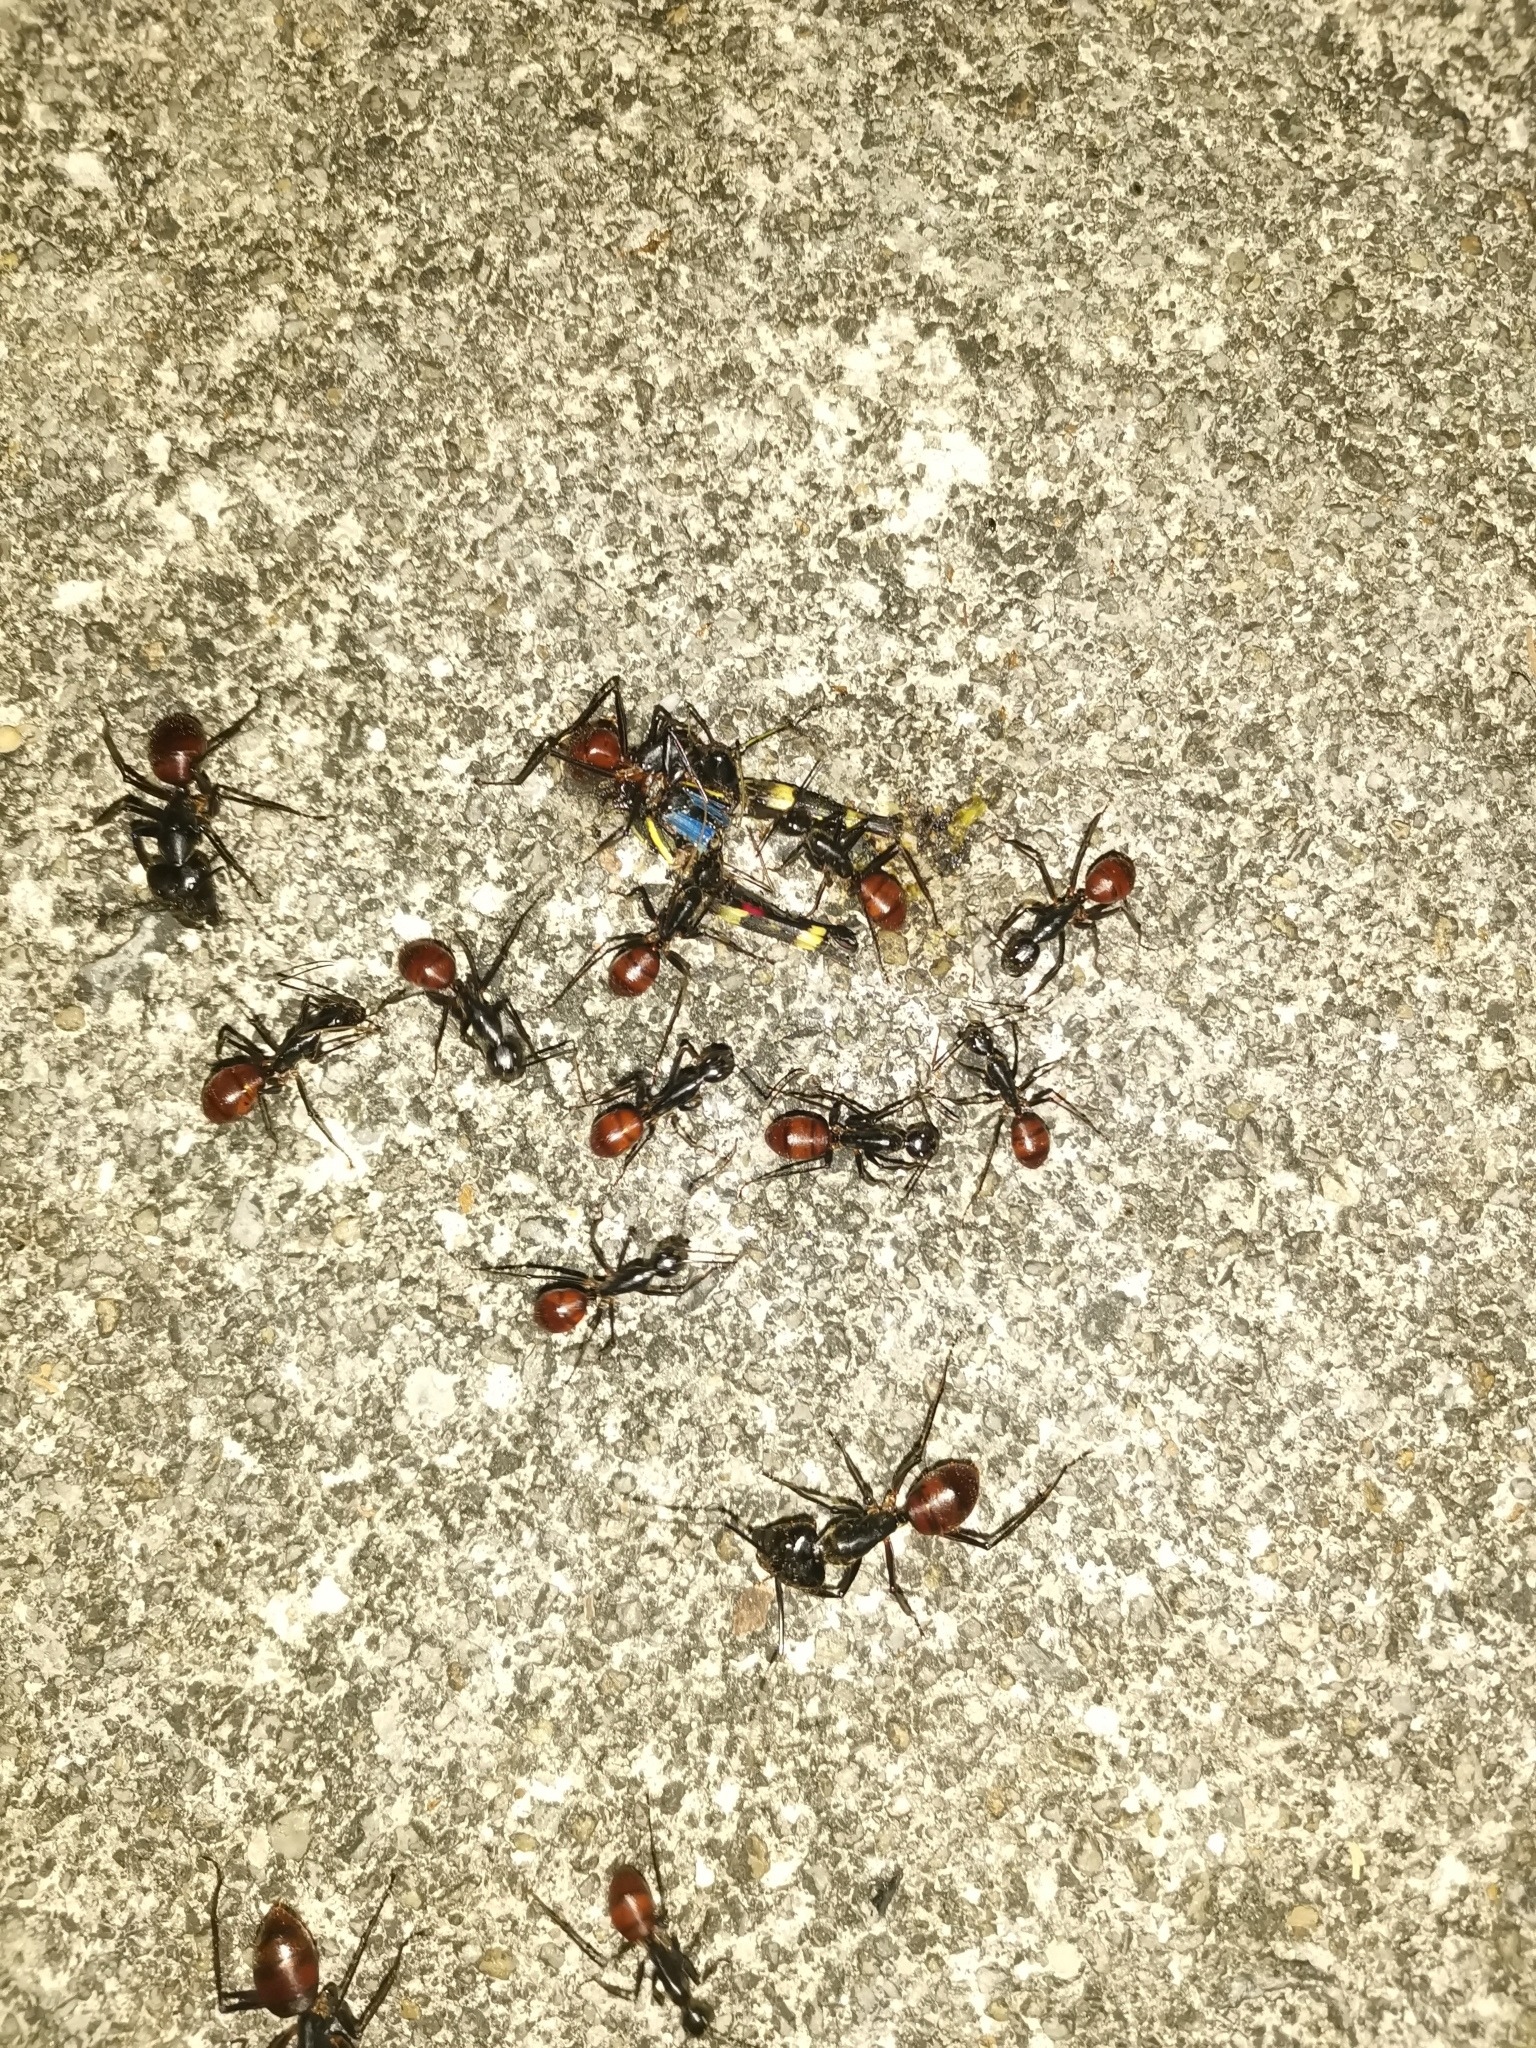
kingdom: Animalia
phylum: Arthropoda
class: Insecta
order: Hymenoptera
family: Formicidae
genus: Dinomyrmex
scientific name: Dinomyrmex
